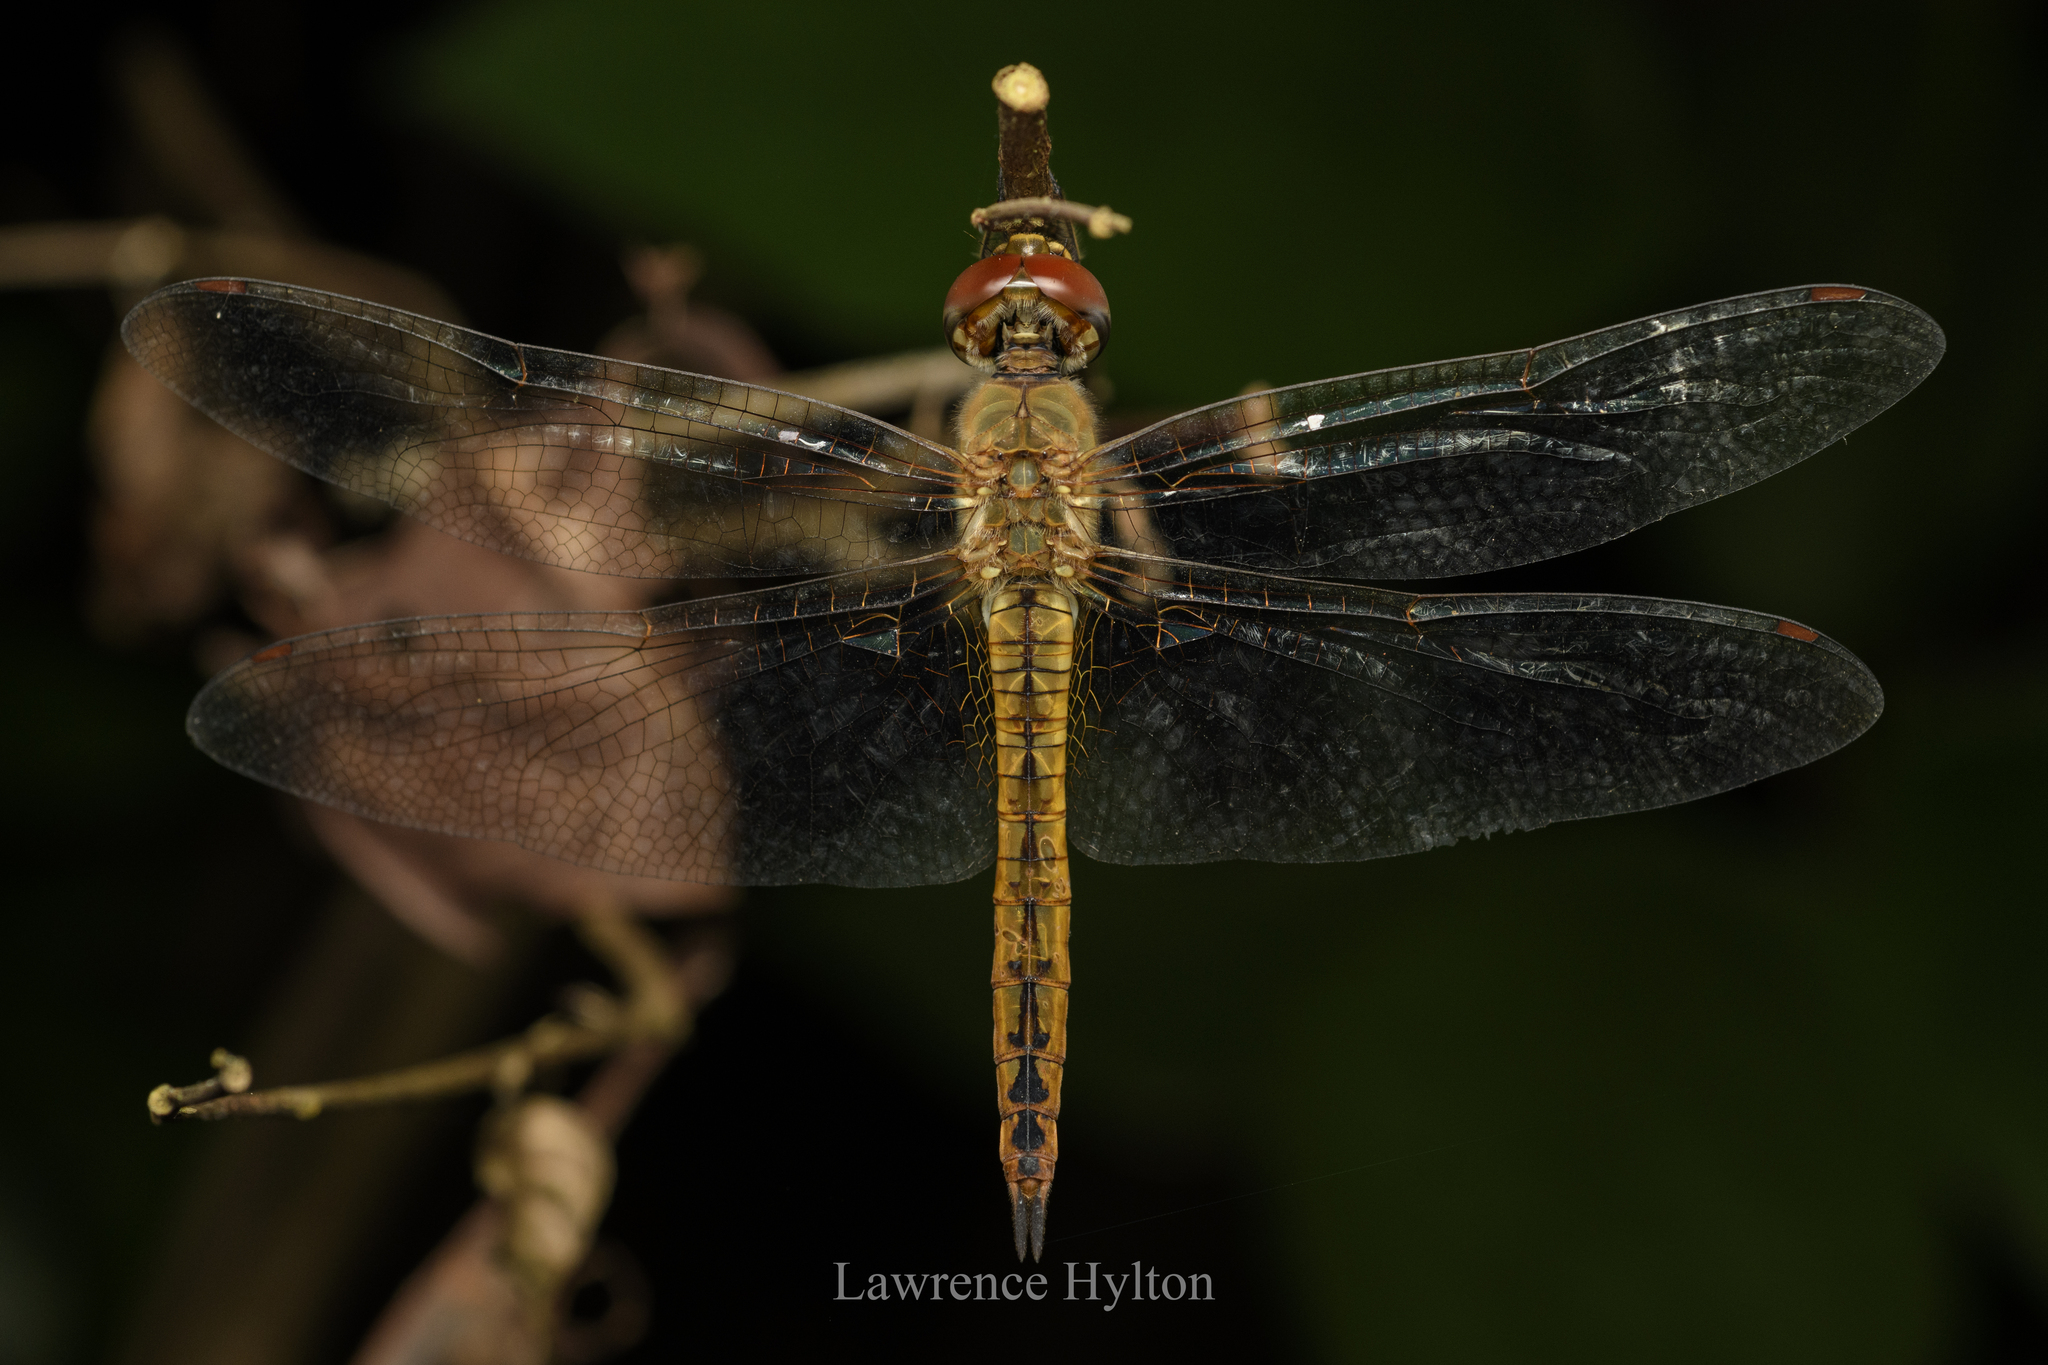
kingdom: Animalia
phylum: Arthropoda
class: Insecta
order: Odonata
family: Libellulidae
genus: Pantala
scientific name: Pantala flavescens
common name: Wandering glider
